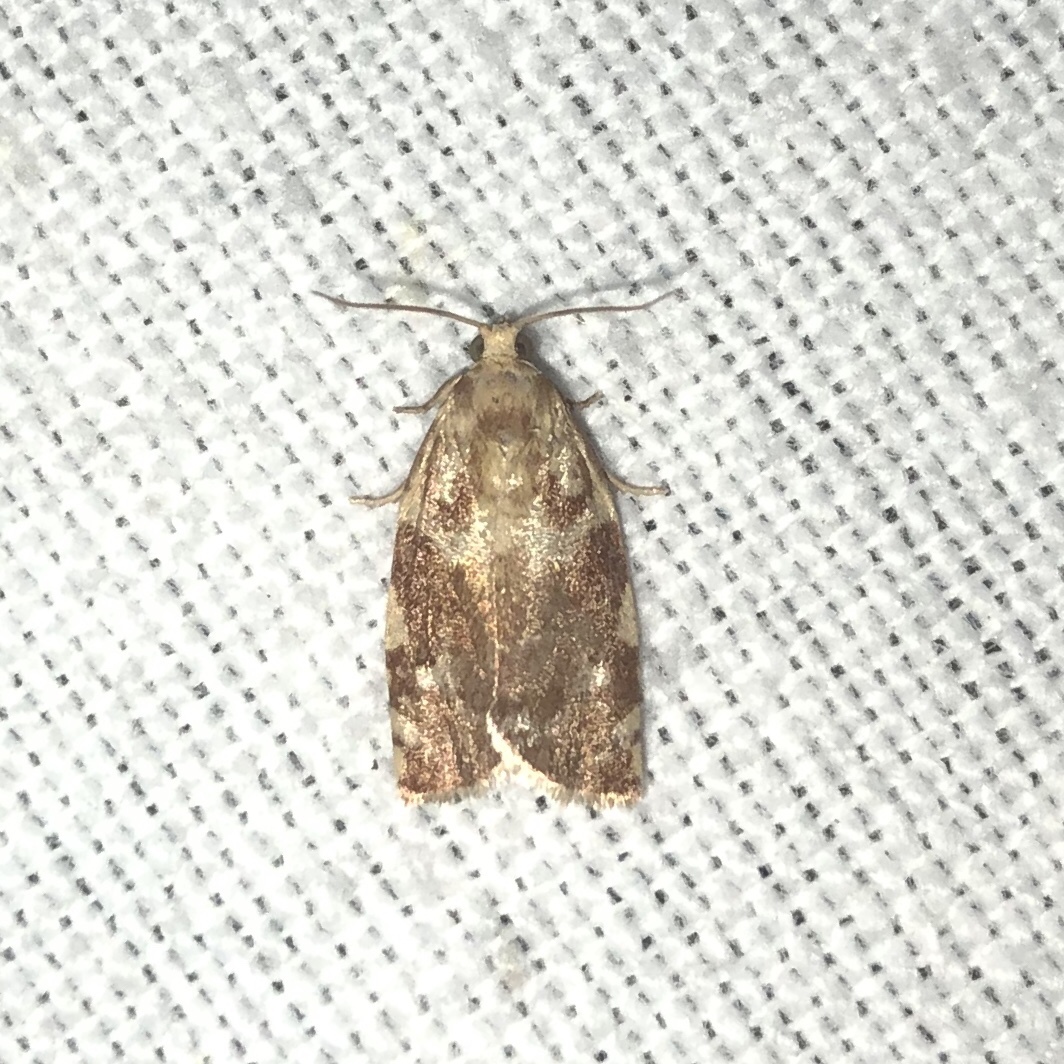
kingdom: Animalia
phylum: Arthropoda
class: Insecta
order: Lepidoptera
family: Tortricidae
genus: Archips
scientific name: Archips semiferanus
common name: Oak leafroller
